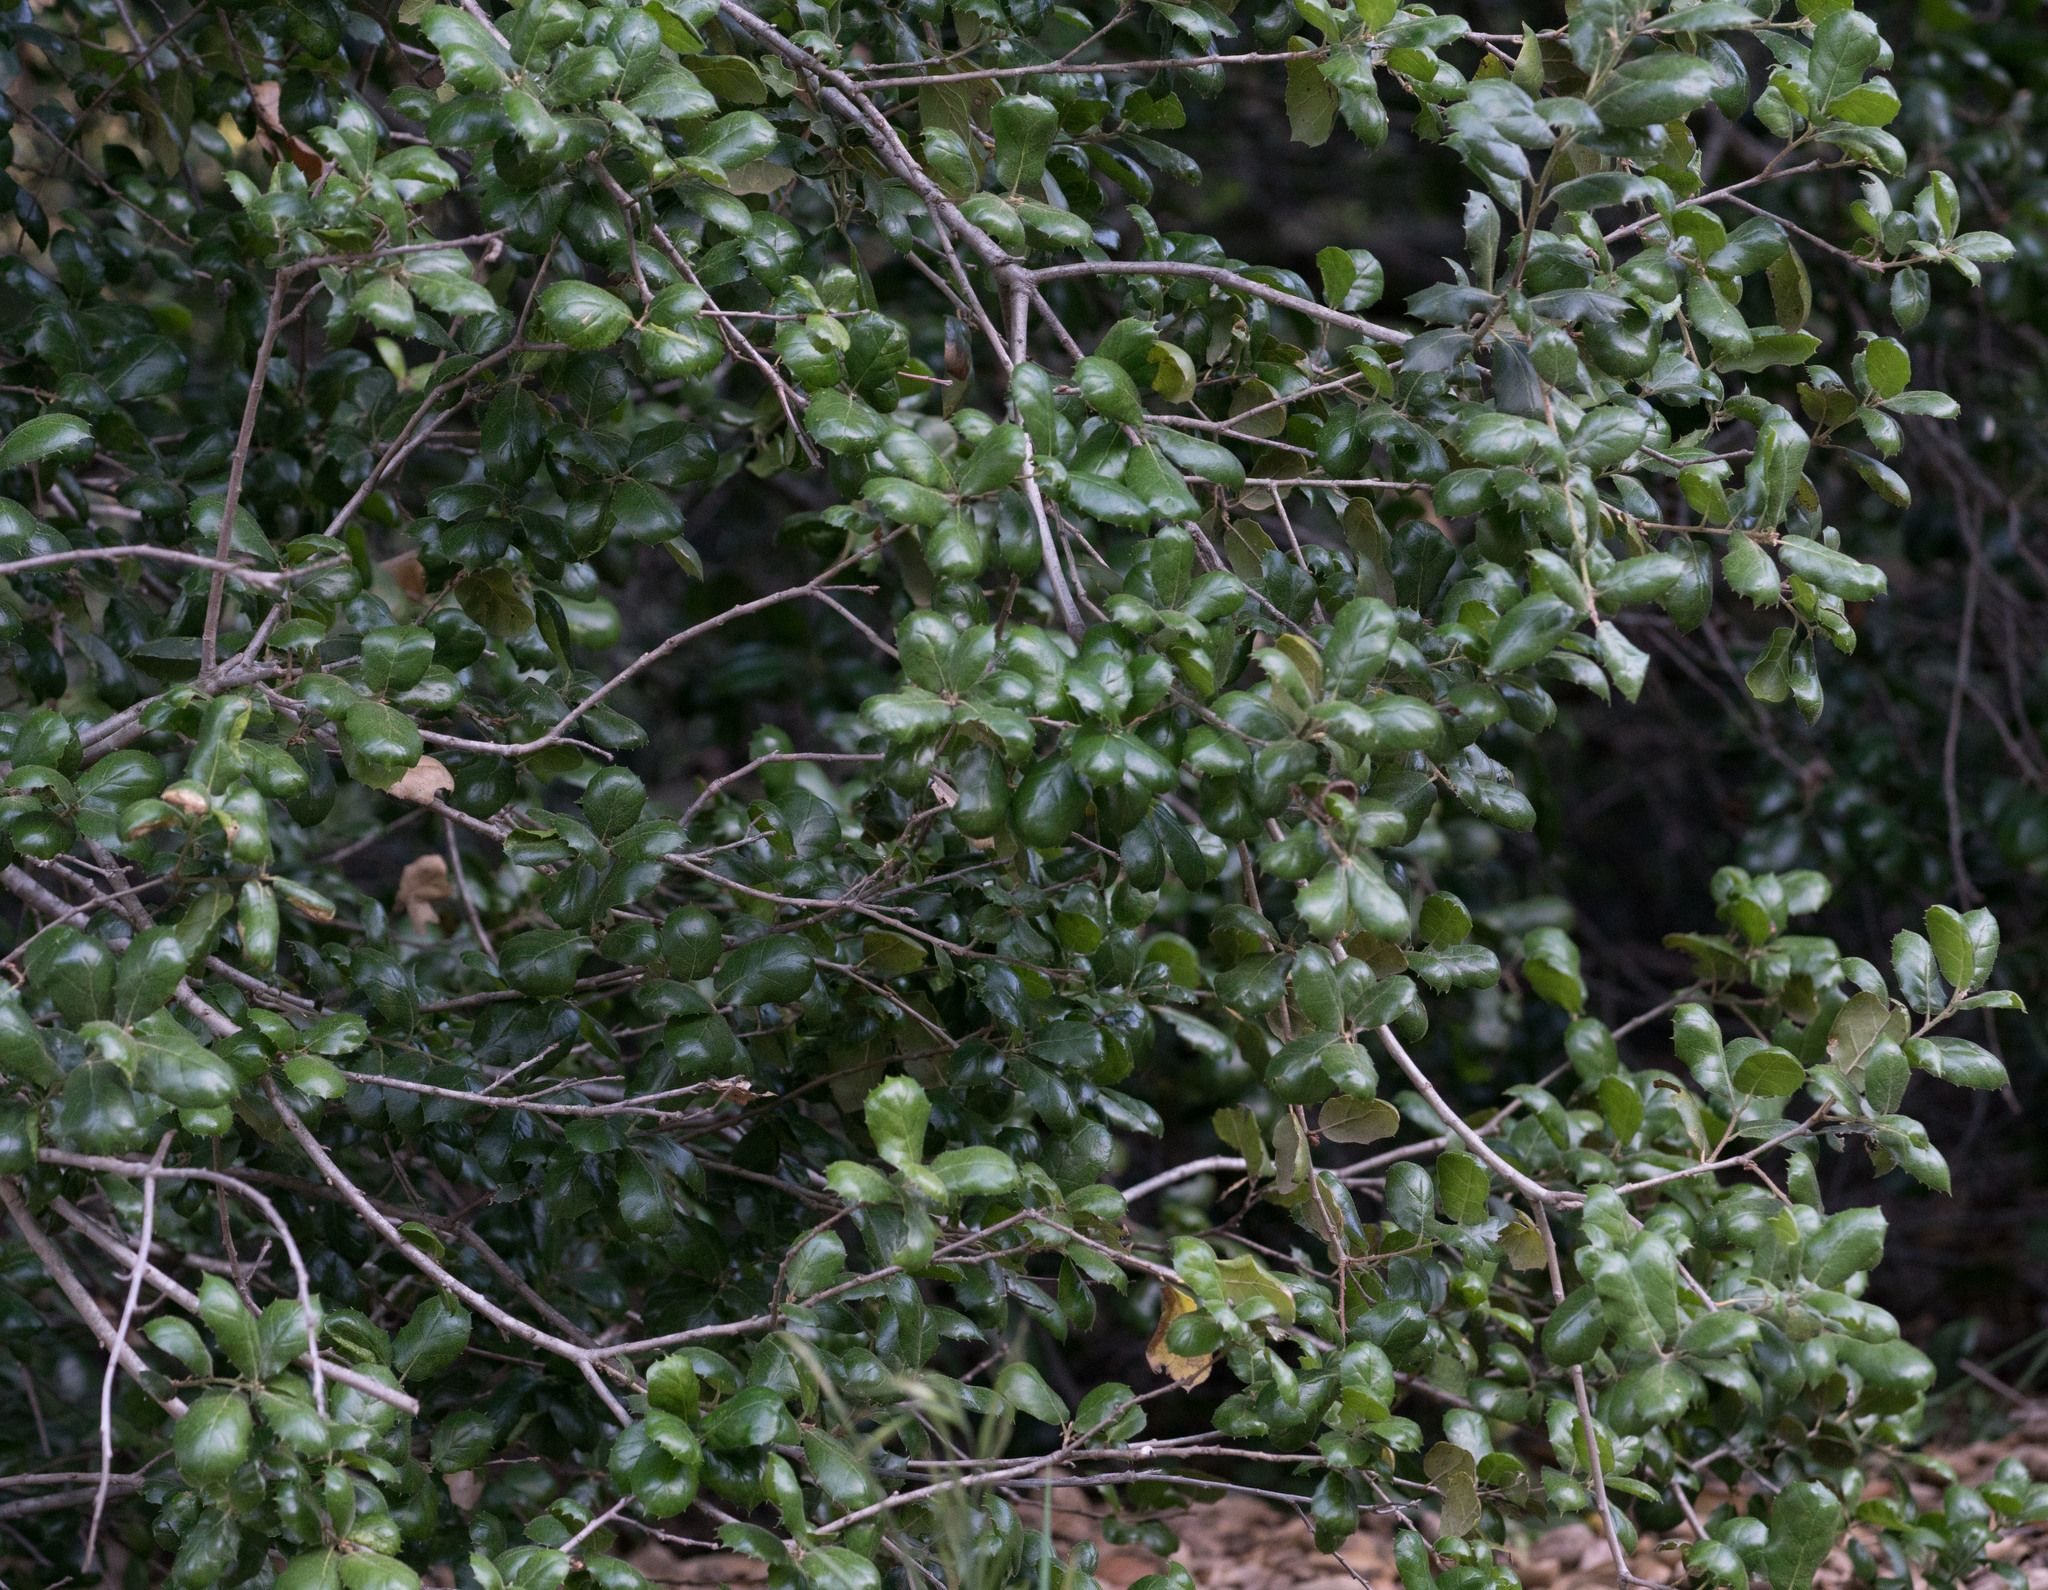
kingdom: Plantae
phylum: Tracheophyta
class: Magnoliopsida
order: Fagales
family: Fagaceae
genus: Quercus
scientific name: Quercus agrifolia
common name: California live oak
